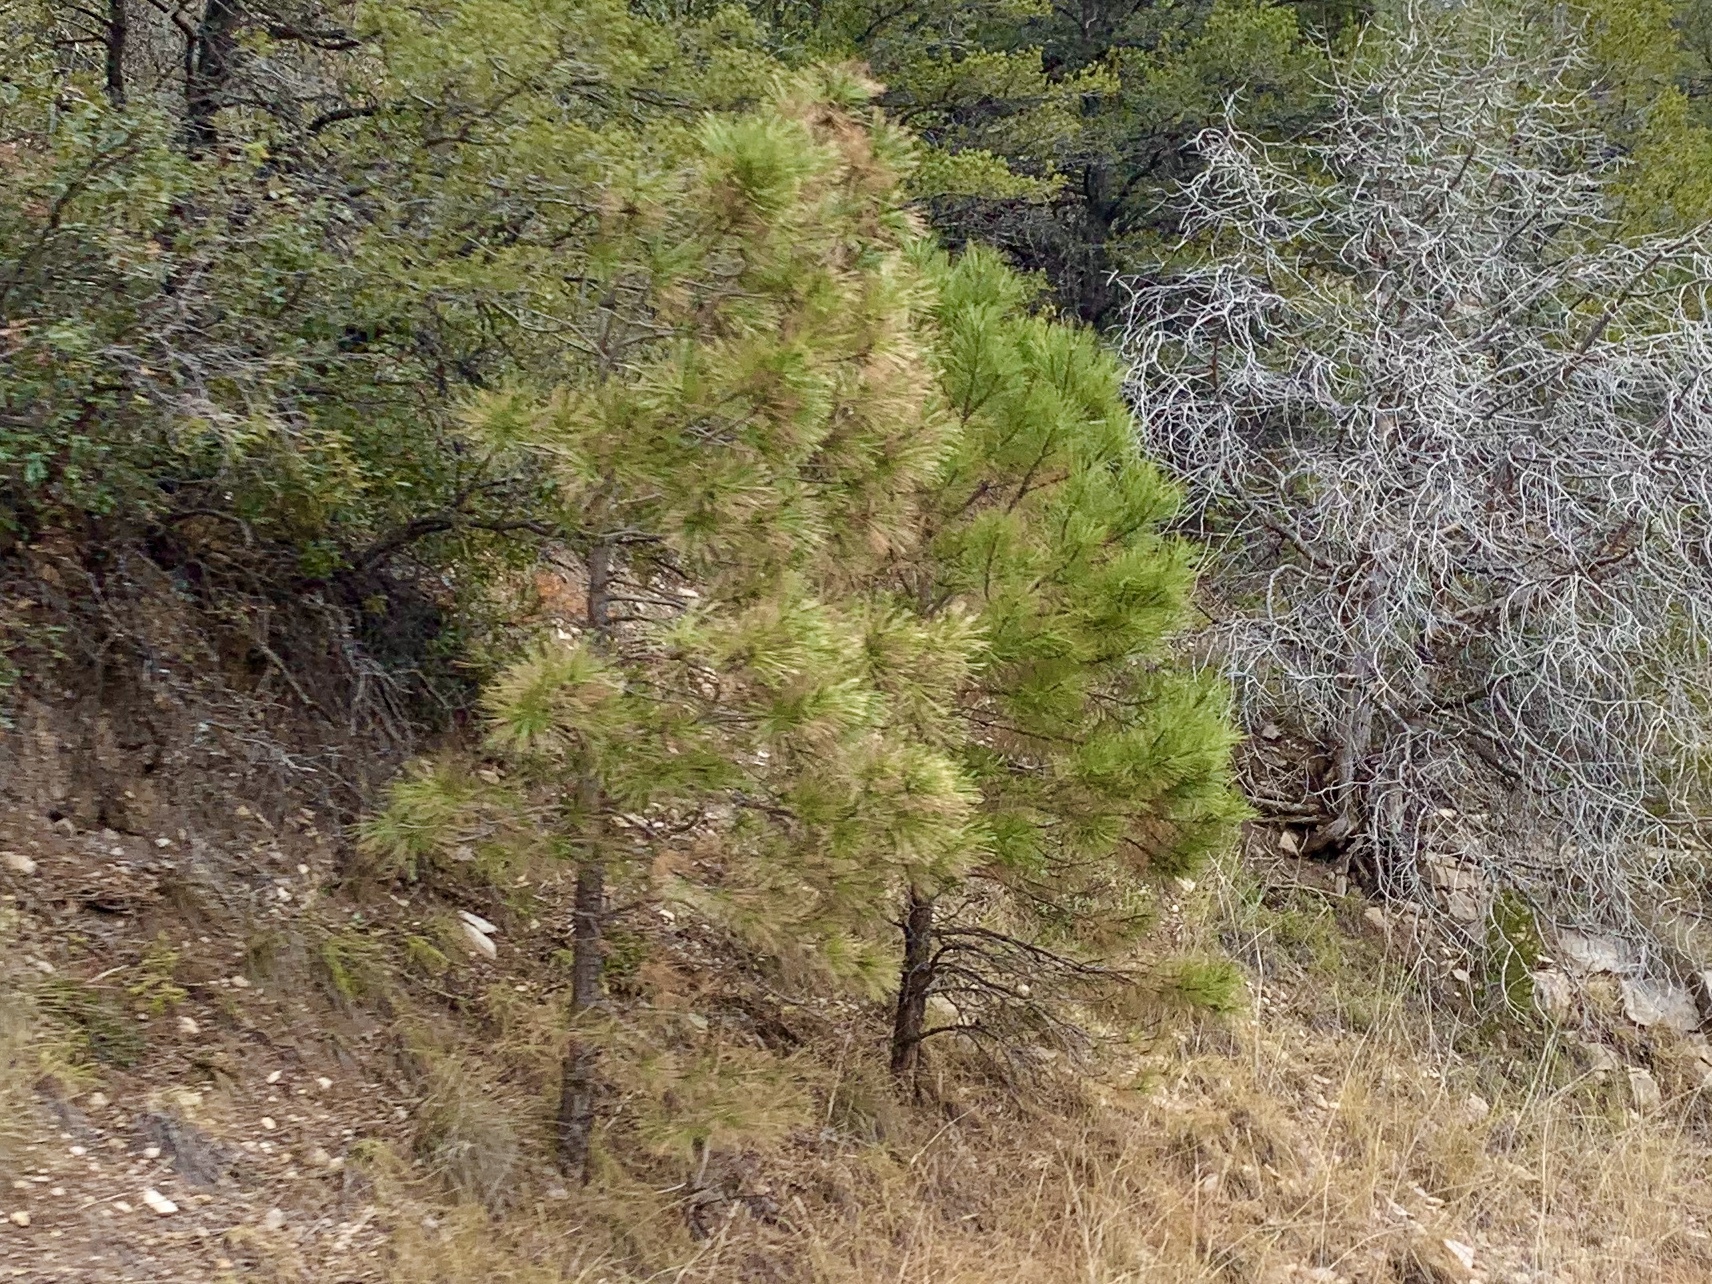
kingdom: Plantae
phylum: Tracheophyta
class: Pinopsida
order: Pinales
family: Pinaceae
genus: Pinus
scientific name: Pinus ponderosa
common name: Western yellow-pine
